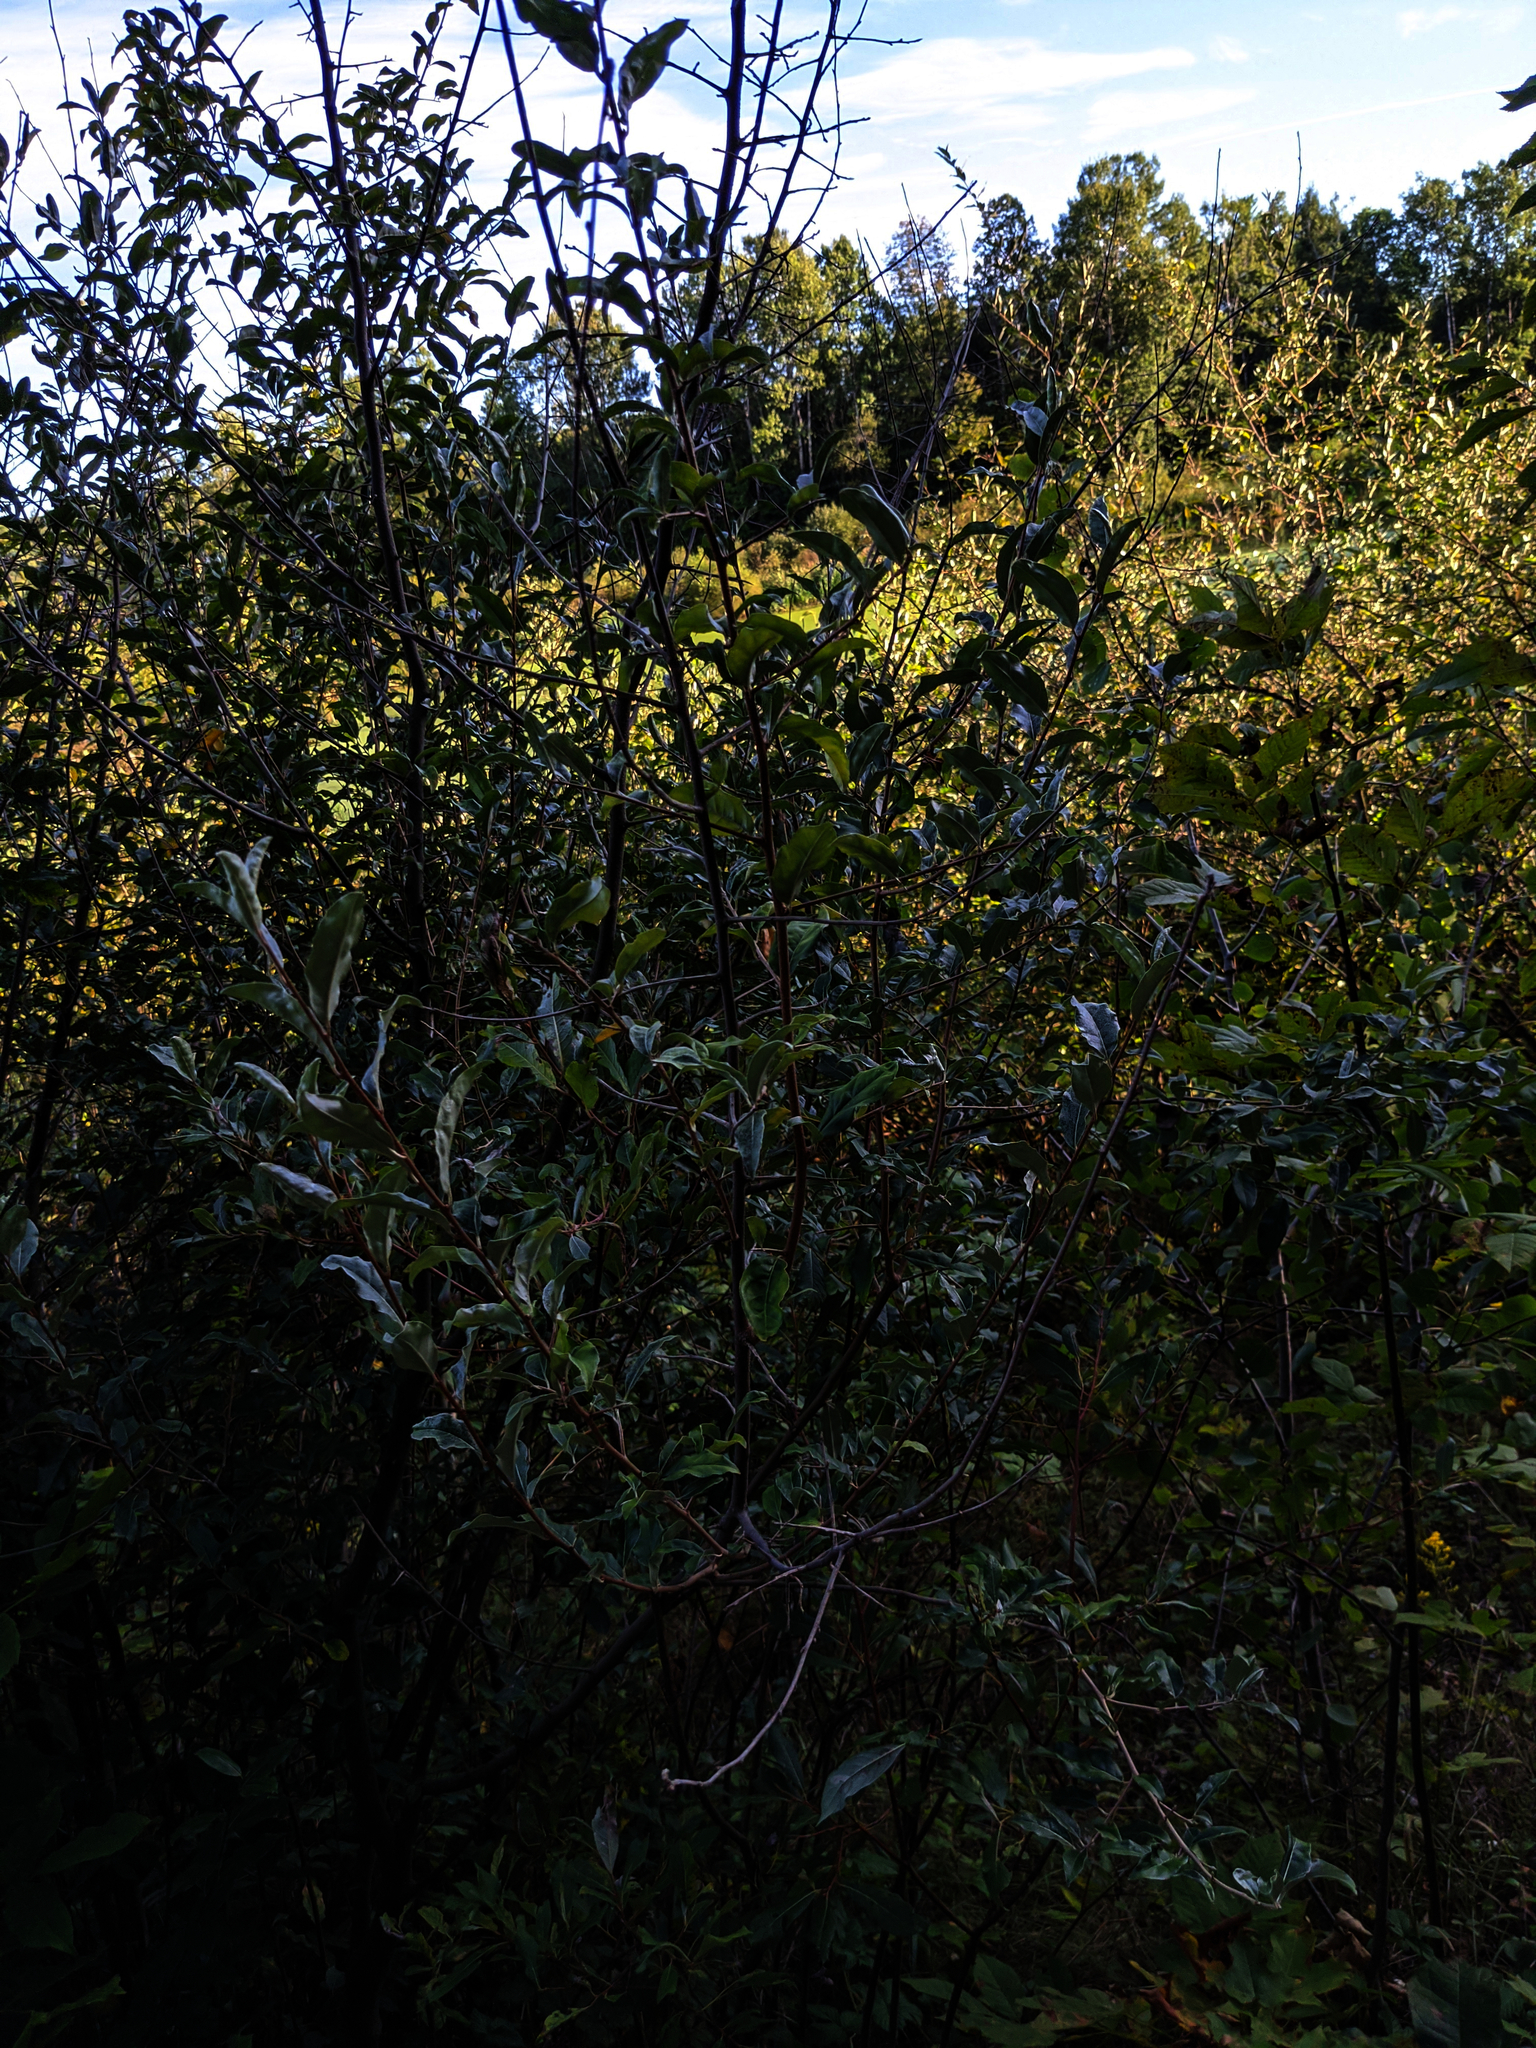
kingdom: Plantae
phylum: Tracheophyta
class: Magnoliopsida
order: Rosales
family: Elaeagnaceae
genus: Elaeagnus
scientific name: Elaeagnus umbellata
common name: Autumn olive
